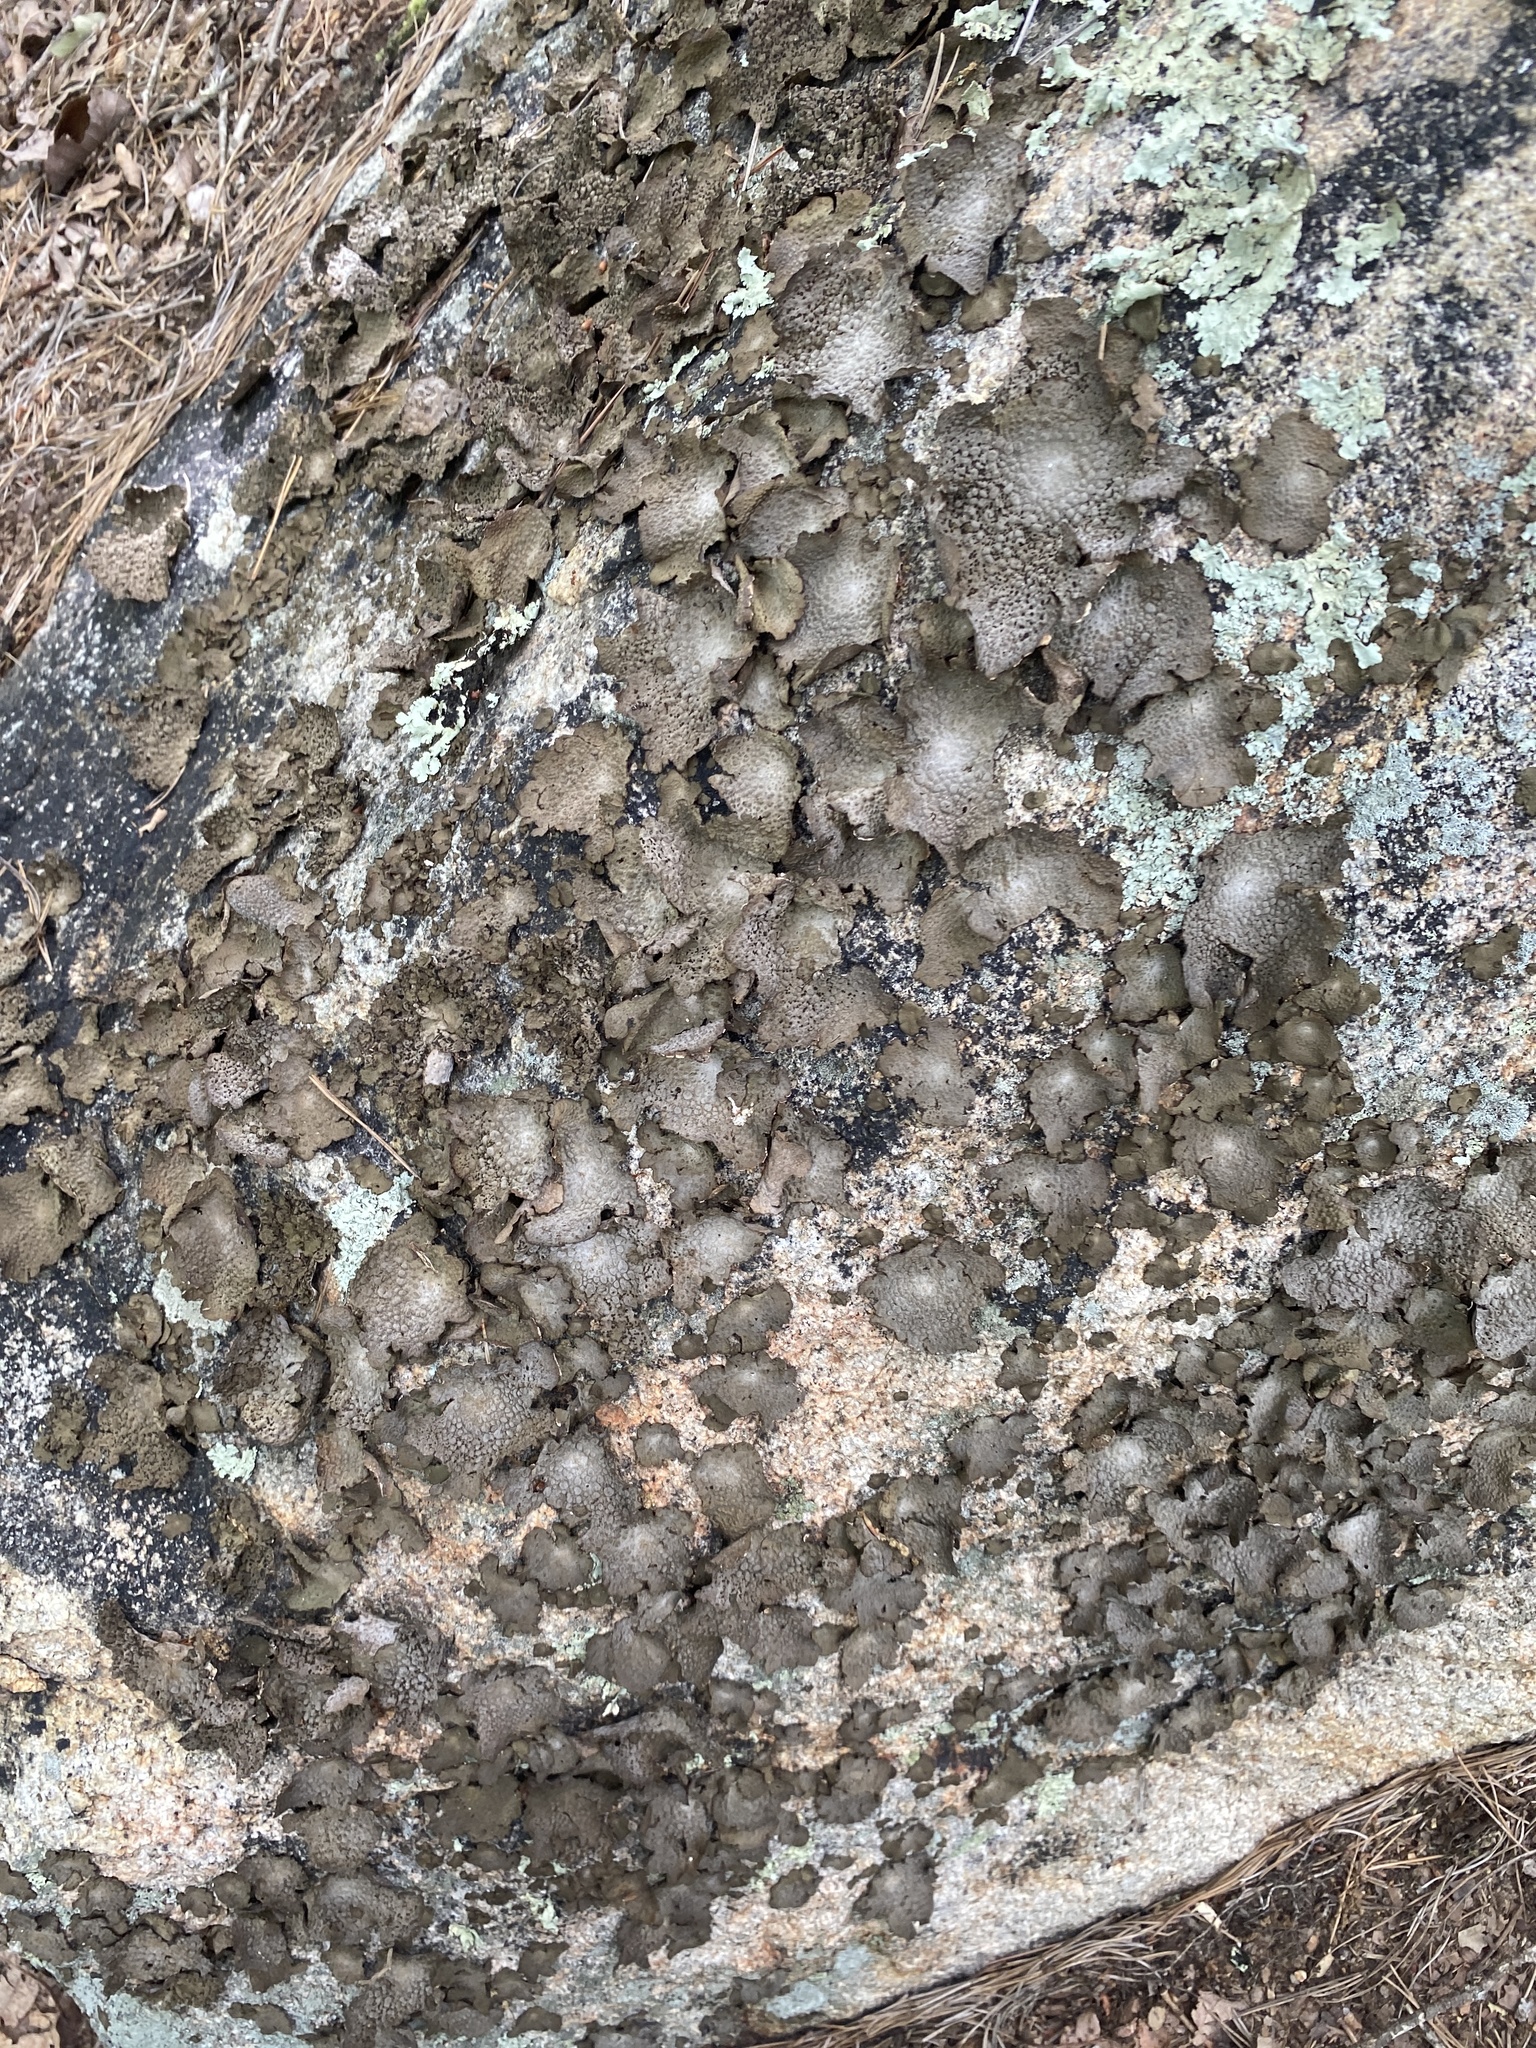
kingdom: Fungi
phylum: Ascomycota
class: Lecanoromycetes
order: Umbilicariales
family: Umbilicariaceae
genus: Lasallia
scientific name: Lasallia papulosa
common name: Common toadskin lichen
